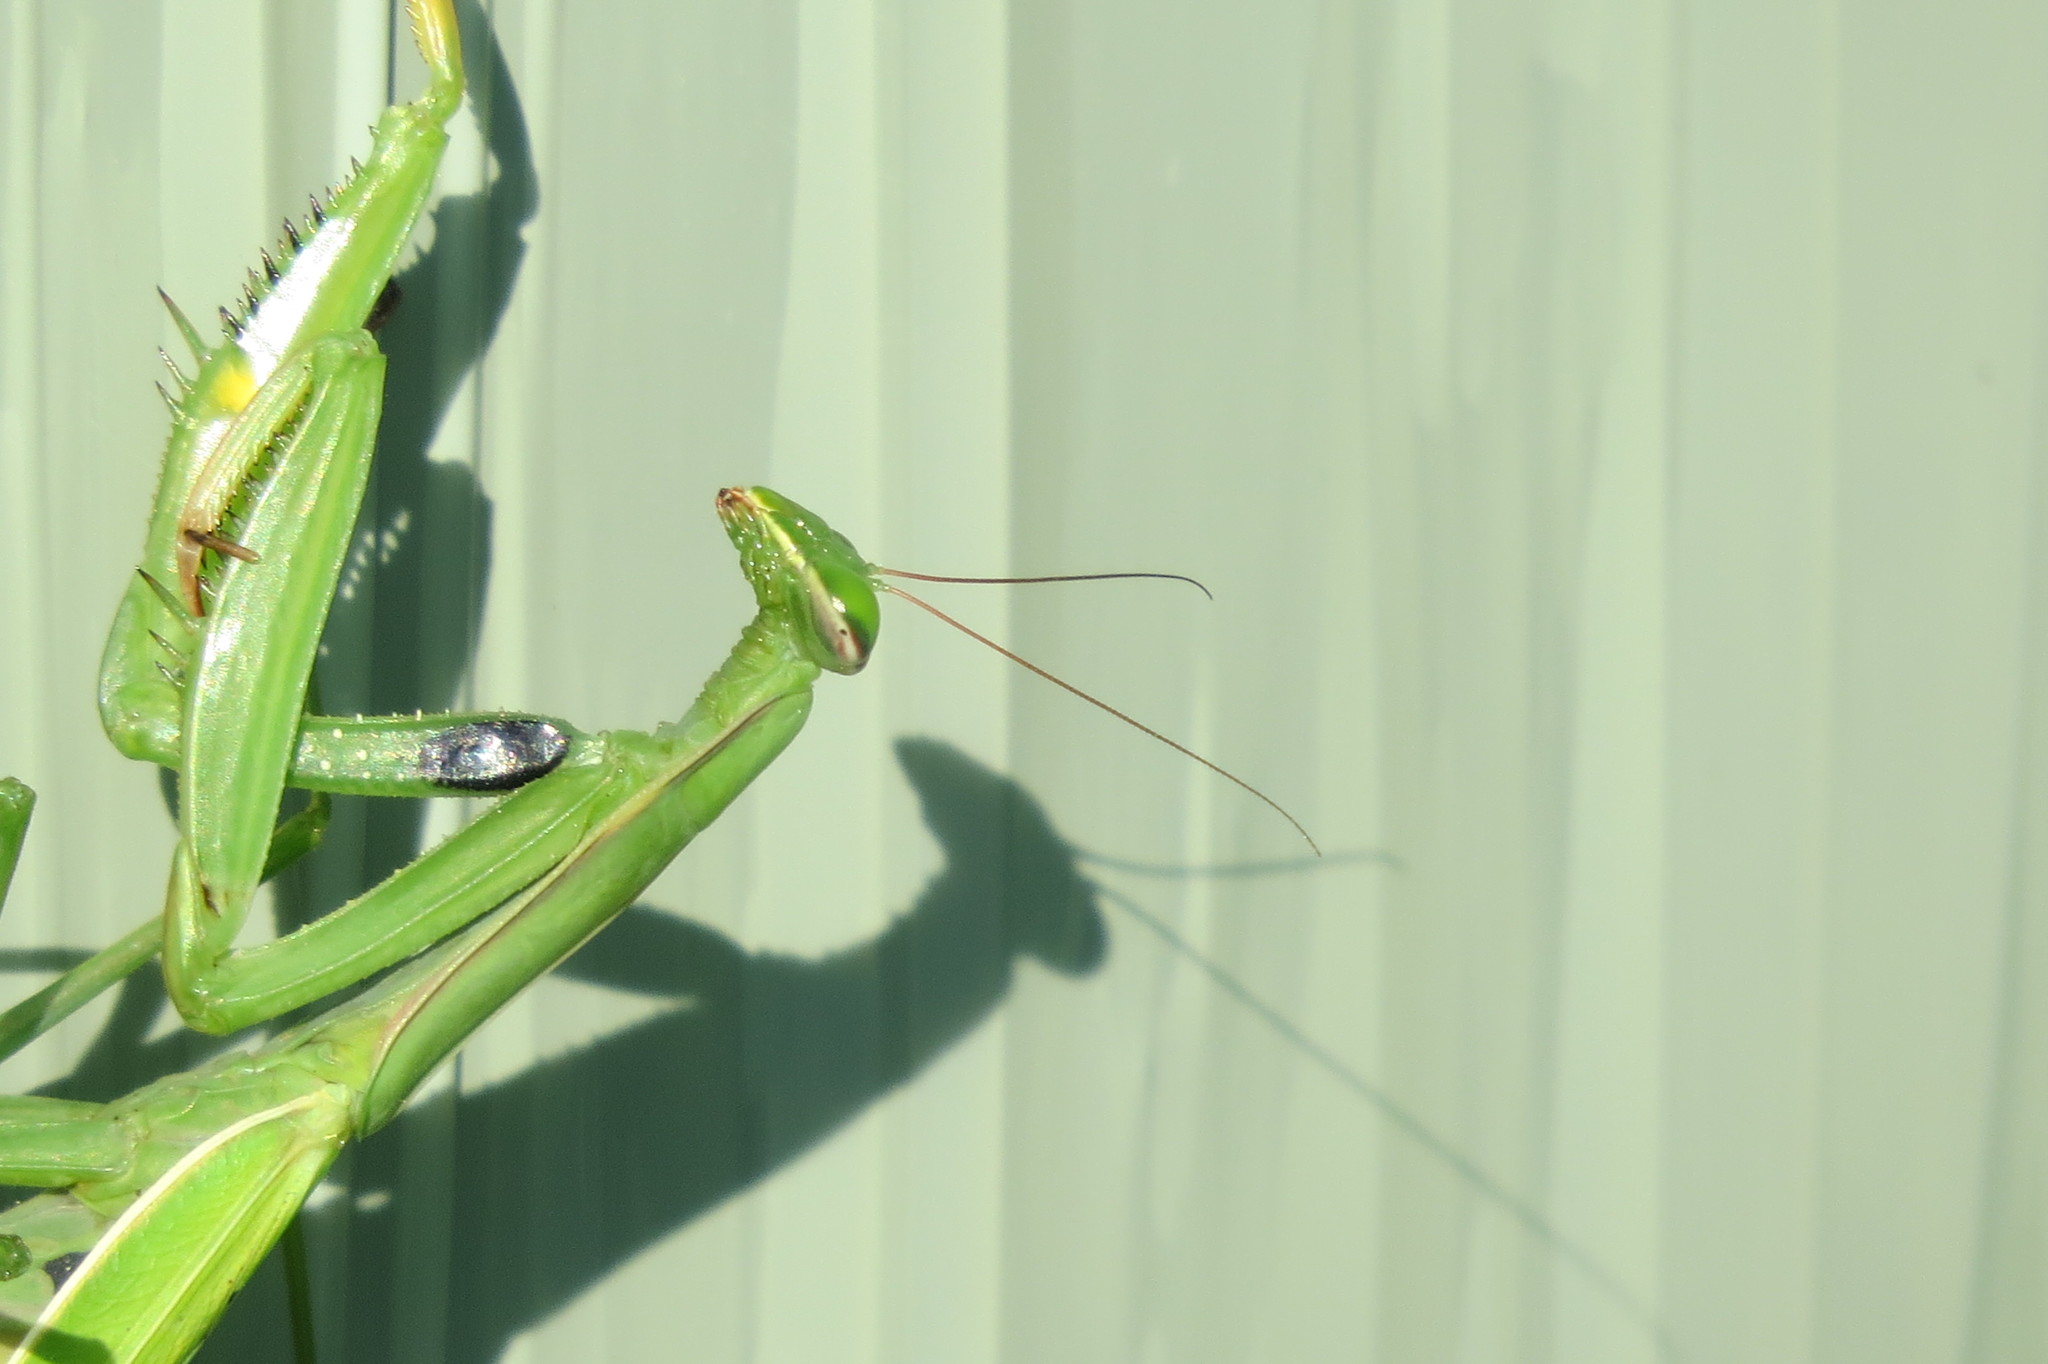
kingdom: Animalia
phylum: Arthropoda
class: Insecta
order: Mantodea
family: Mantidae
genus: Mantis
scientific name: Mantis religiosa
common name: Praying mantis
